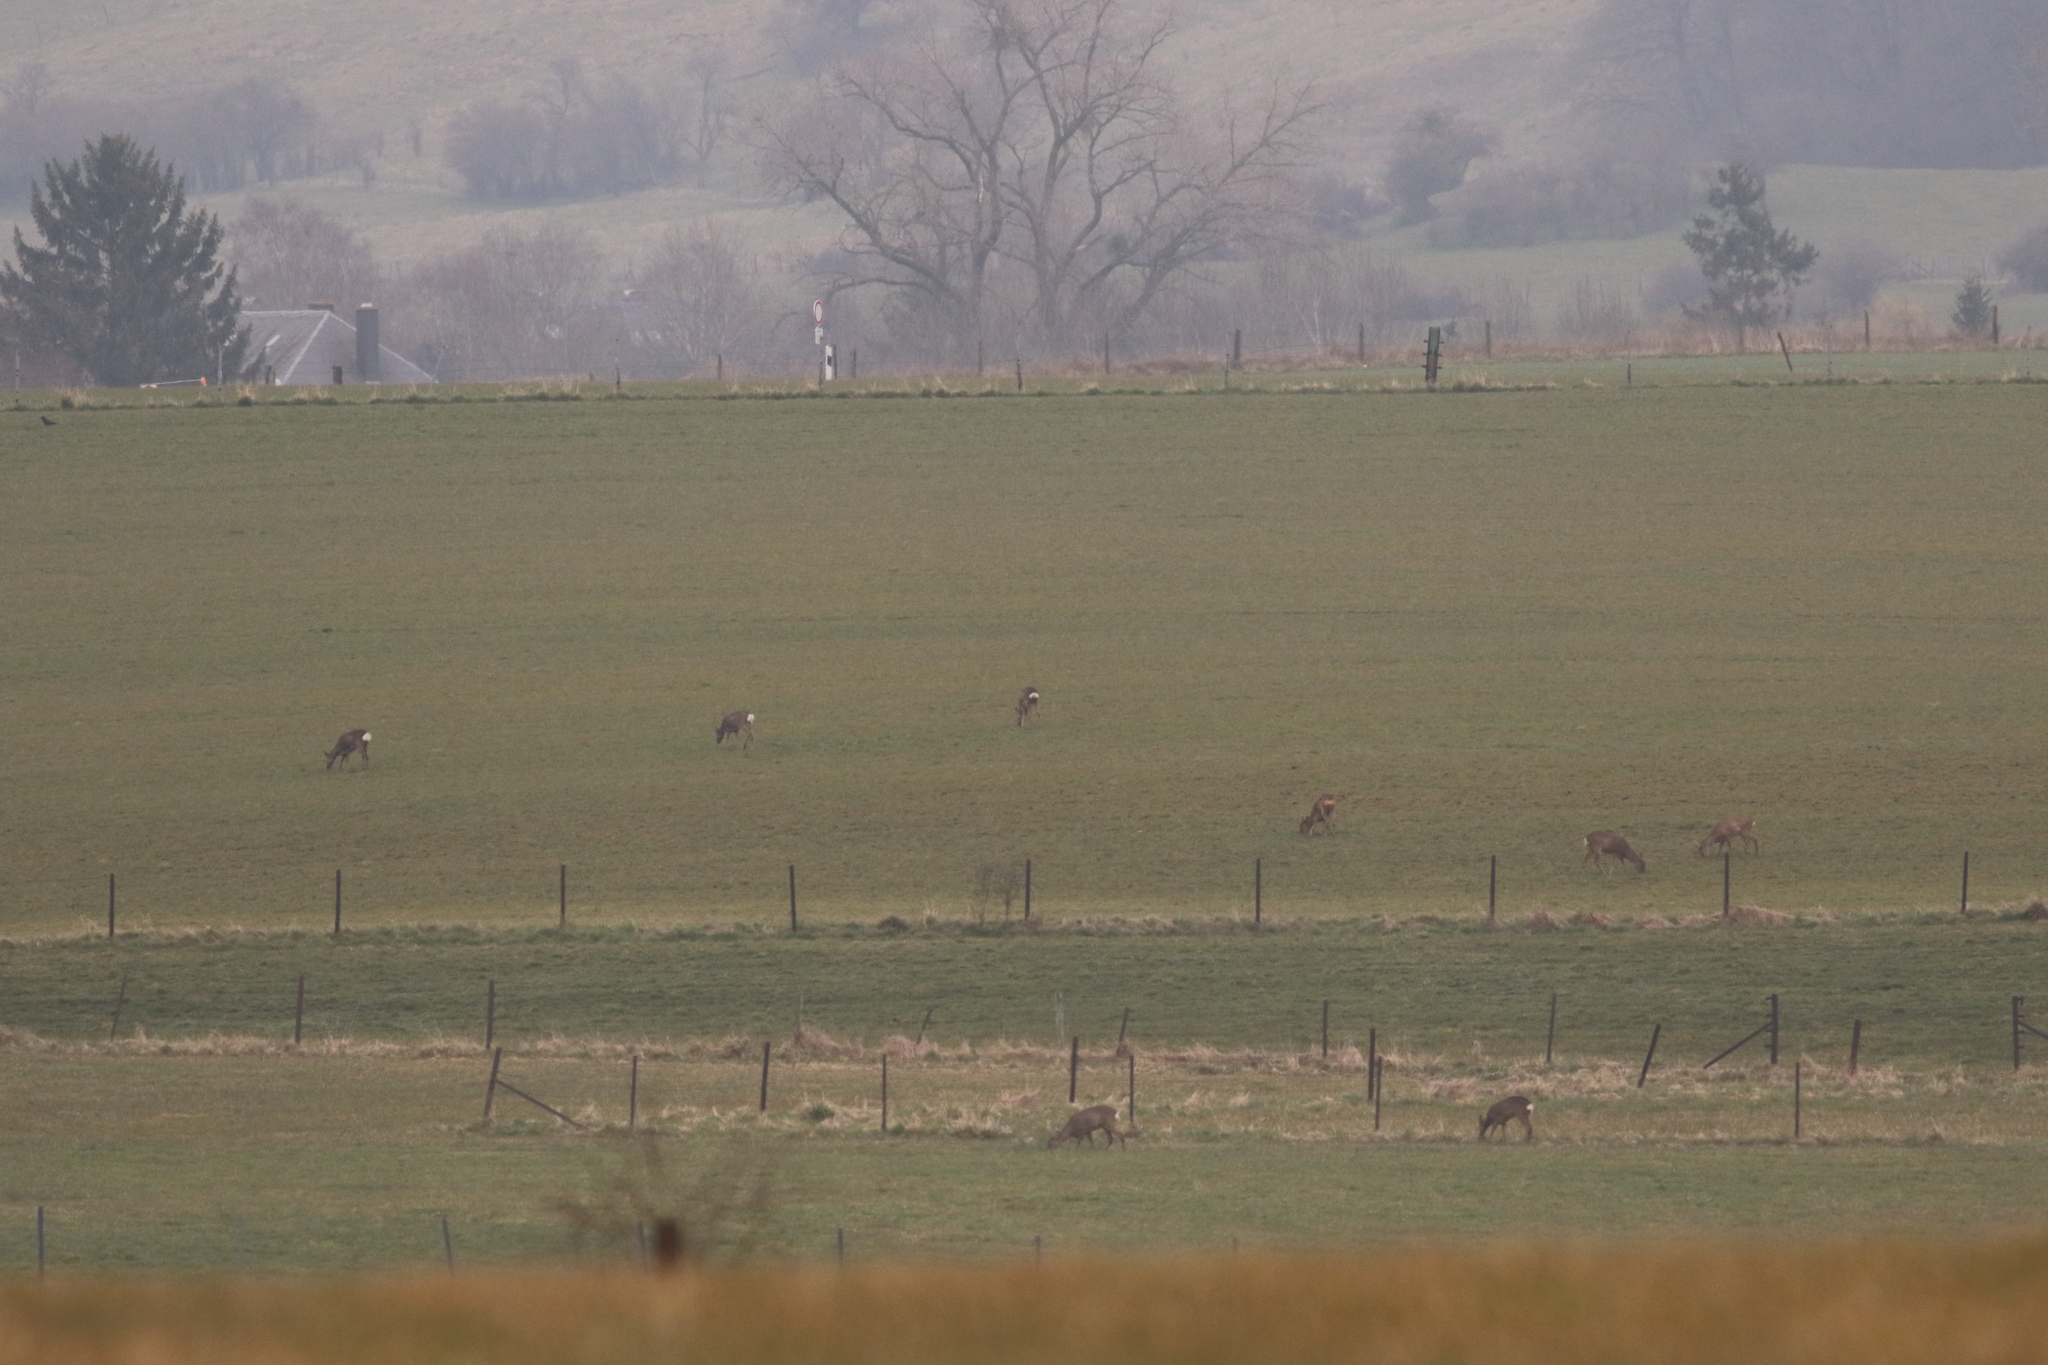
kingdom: Animalia
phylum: Chordata
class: Mammalia
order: Artiodactyla
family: Cervidae
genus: Capreolus
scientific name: Capreolus capreolus
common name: Western roe deer
